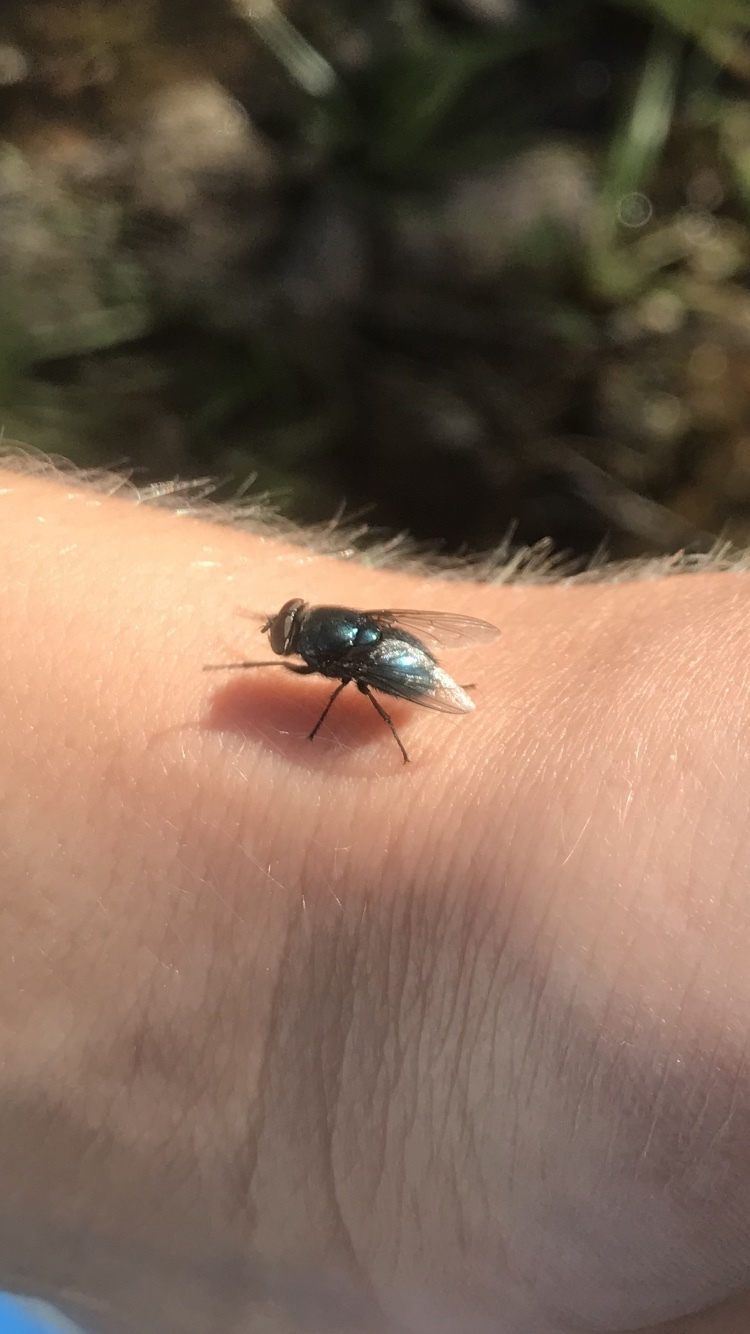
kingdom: Animalia
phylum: Arthropoda
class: Insecta
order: Diptera
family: Calliphoridae
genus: Phormia
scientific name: Phormia regina
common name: Black blow fly
